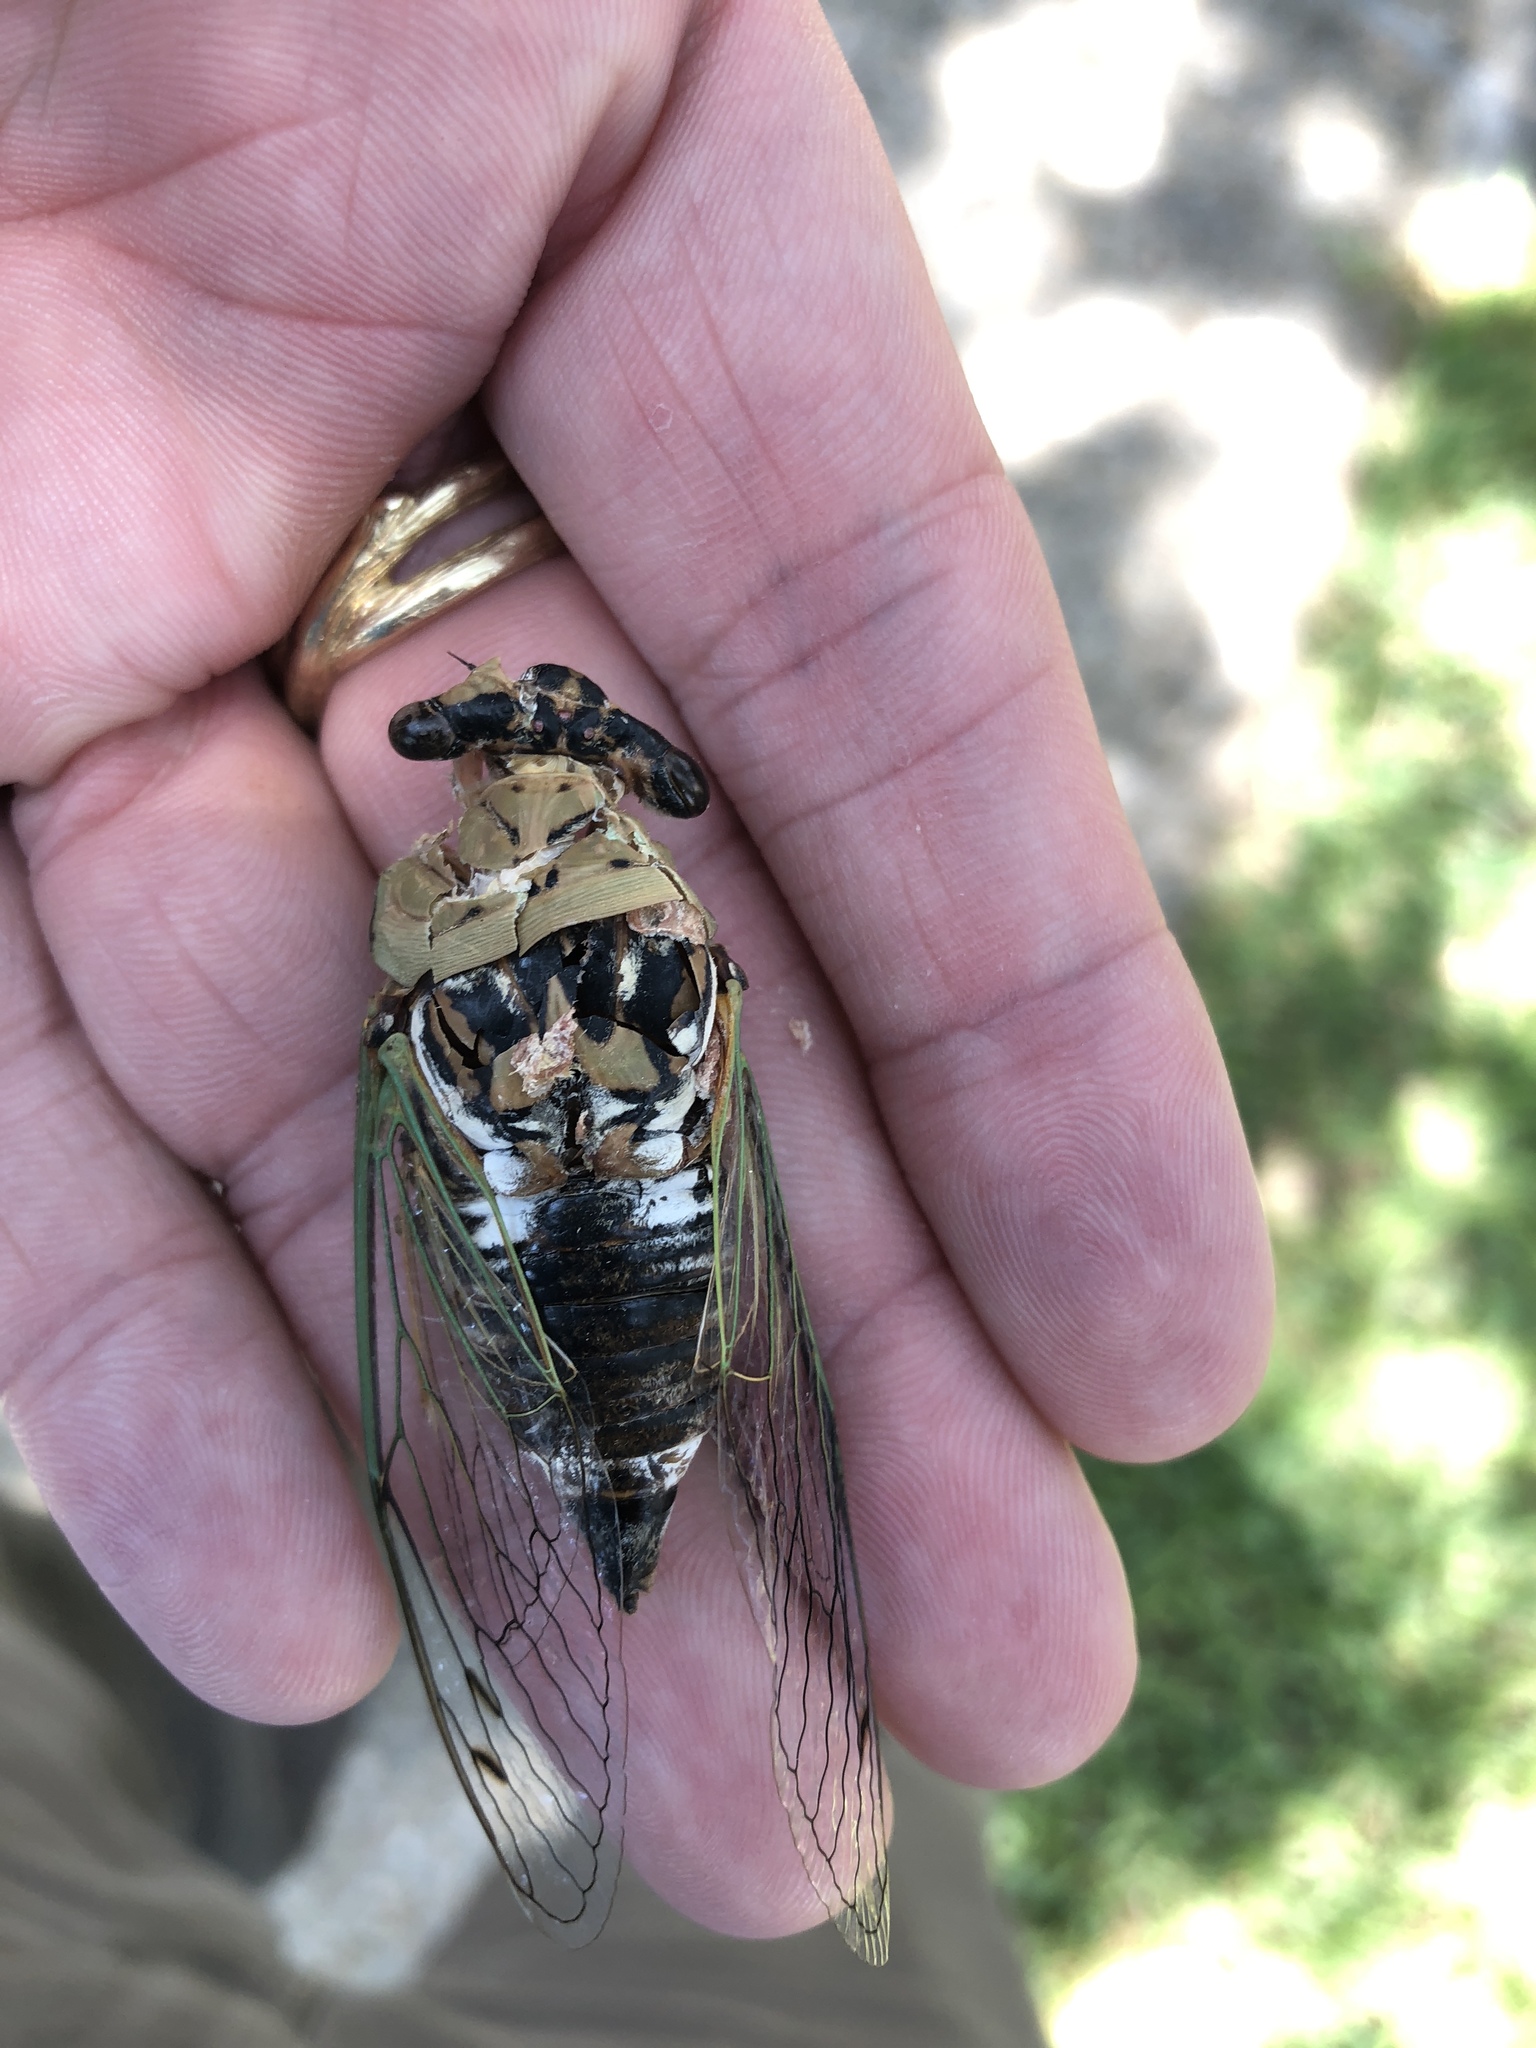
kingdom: Animalia
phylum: Arthropoda
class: Insecta
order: Hemiptera
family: Cicadidae
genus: Megatibicen
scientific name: Megatibicen resh
